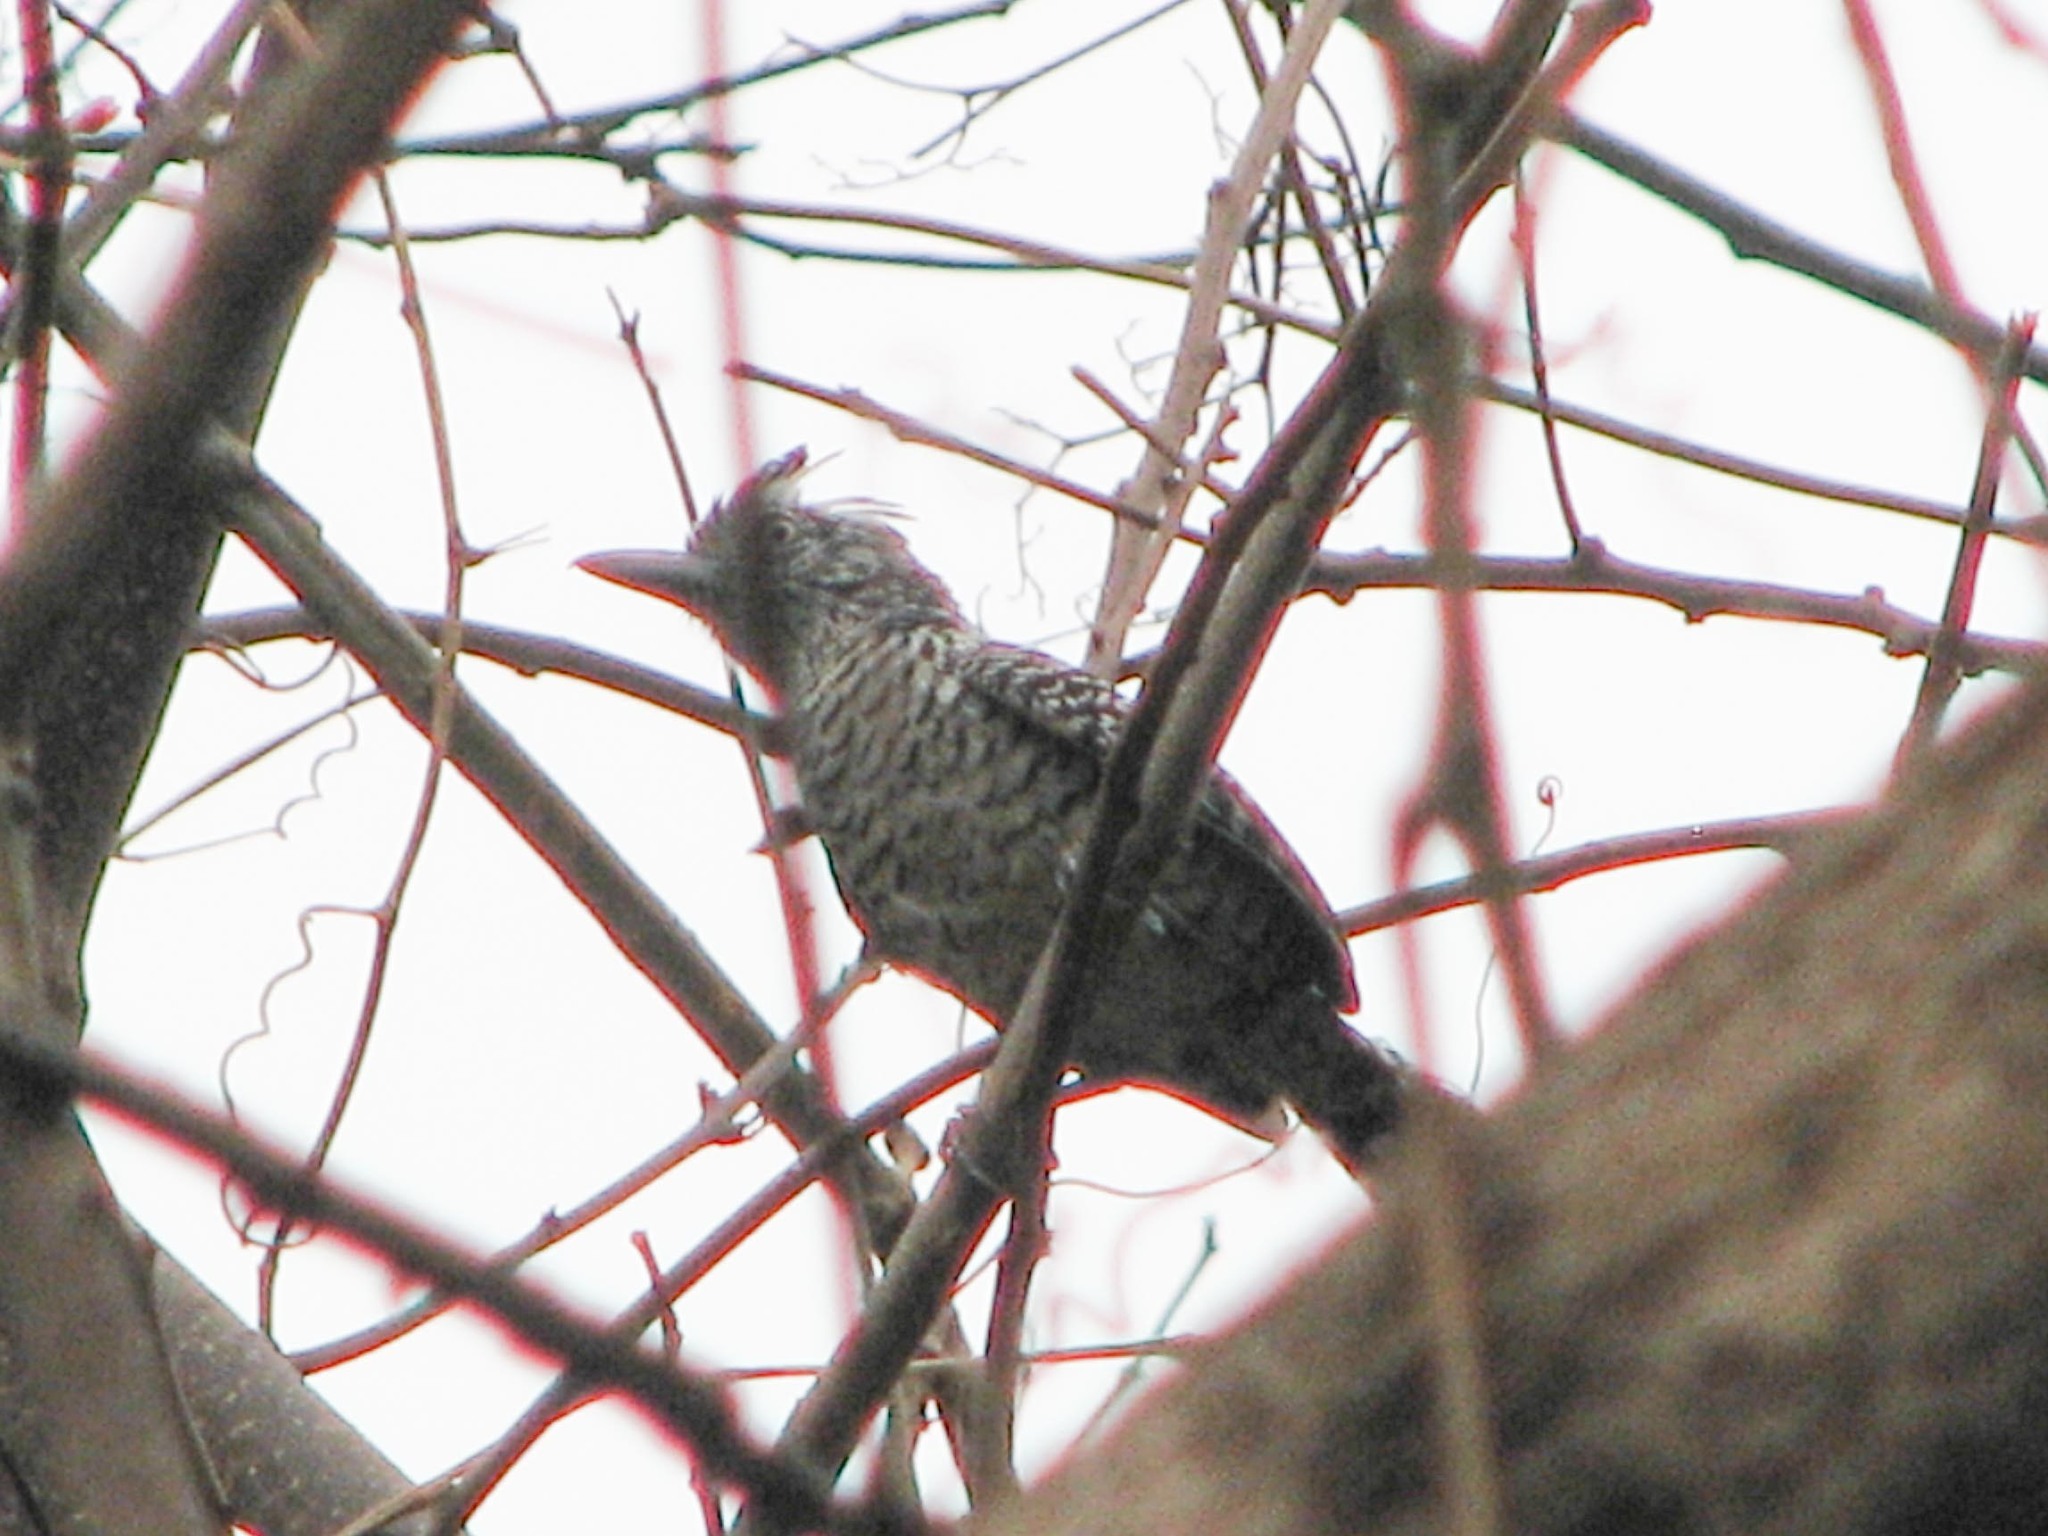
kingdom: Animalia
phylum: Chordata
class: Aves
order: Passeriformes
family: Thamnophilidae
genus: Thamnophilus
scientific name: Thamnophilus doliatus
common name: Barred antshrike
